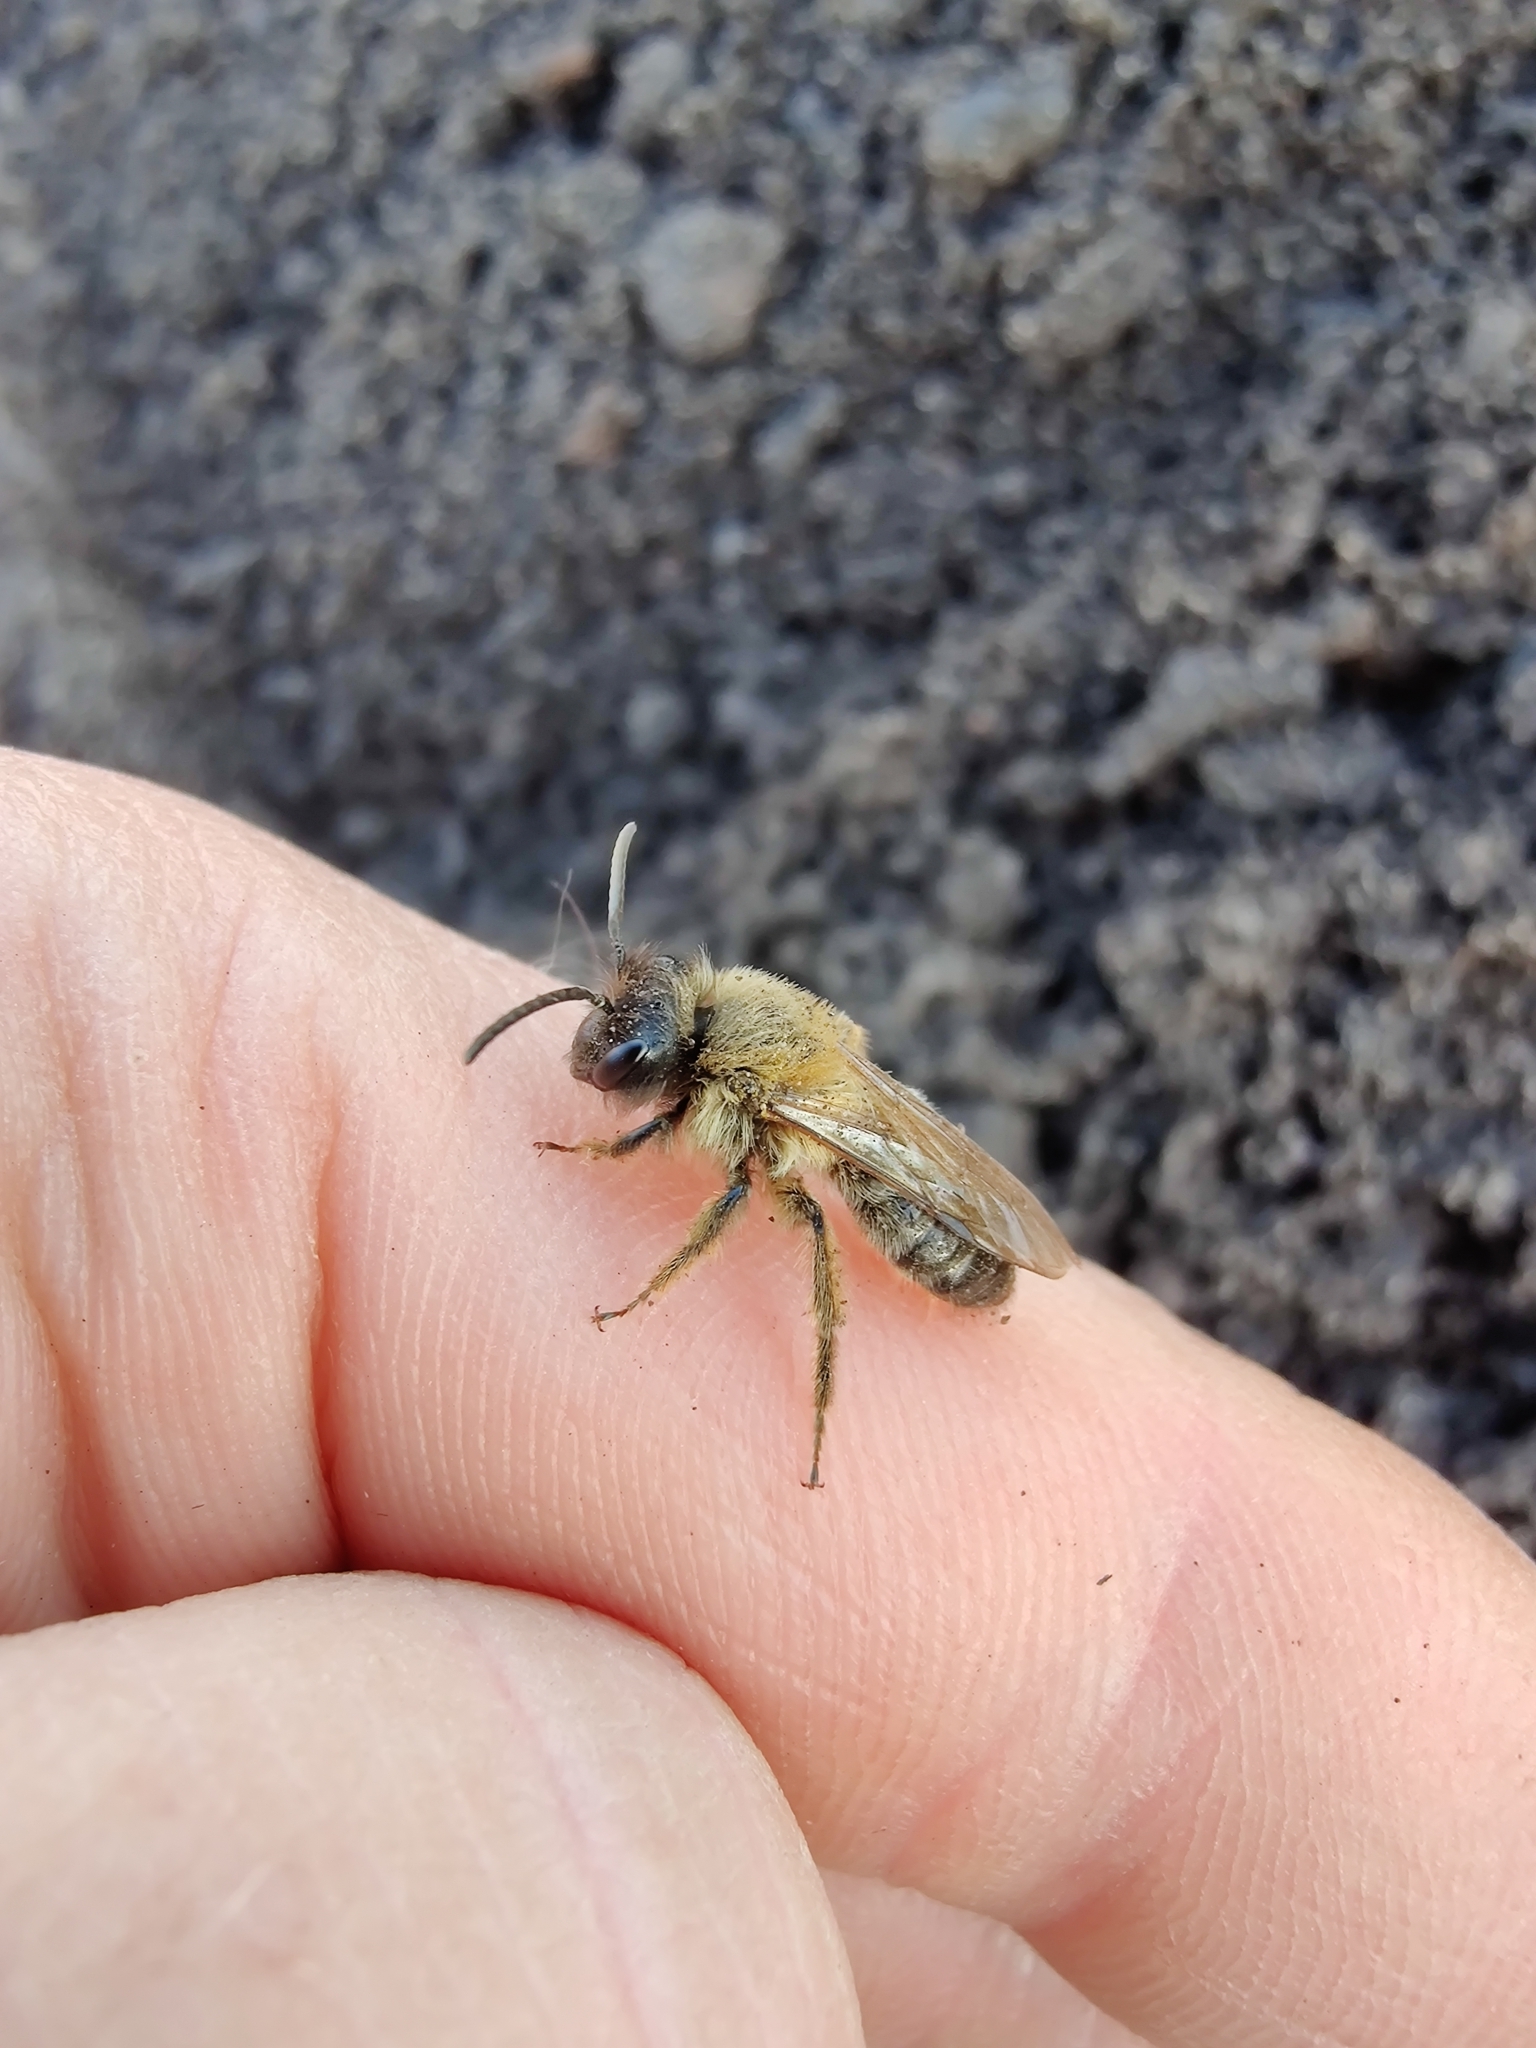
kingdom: Animalia
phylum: Arthropoda
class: Insecta
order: Hymenoptera
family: Andrenidae
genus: Andrena
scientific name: Andrena tibialis
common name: Grey-gastered mining bee
